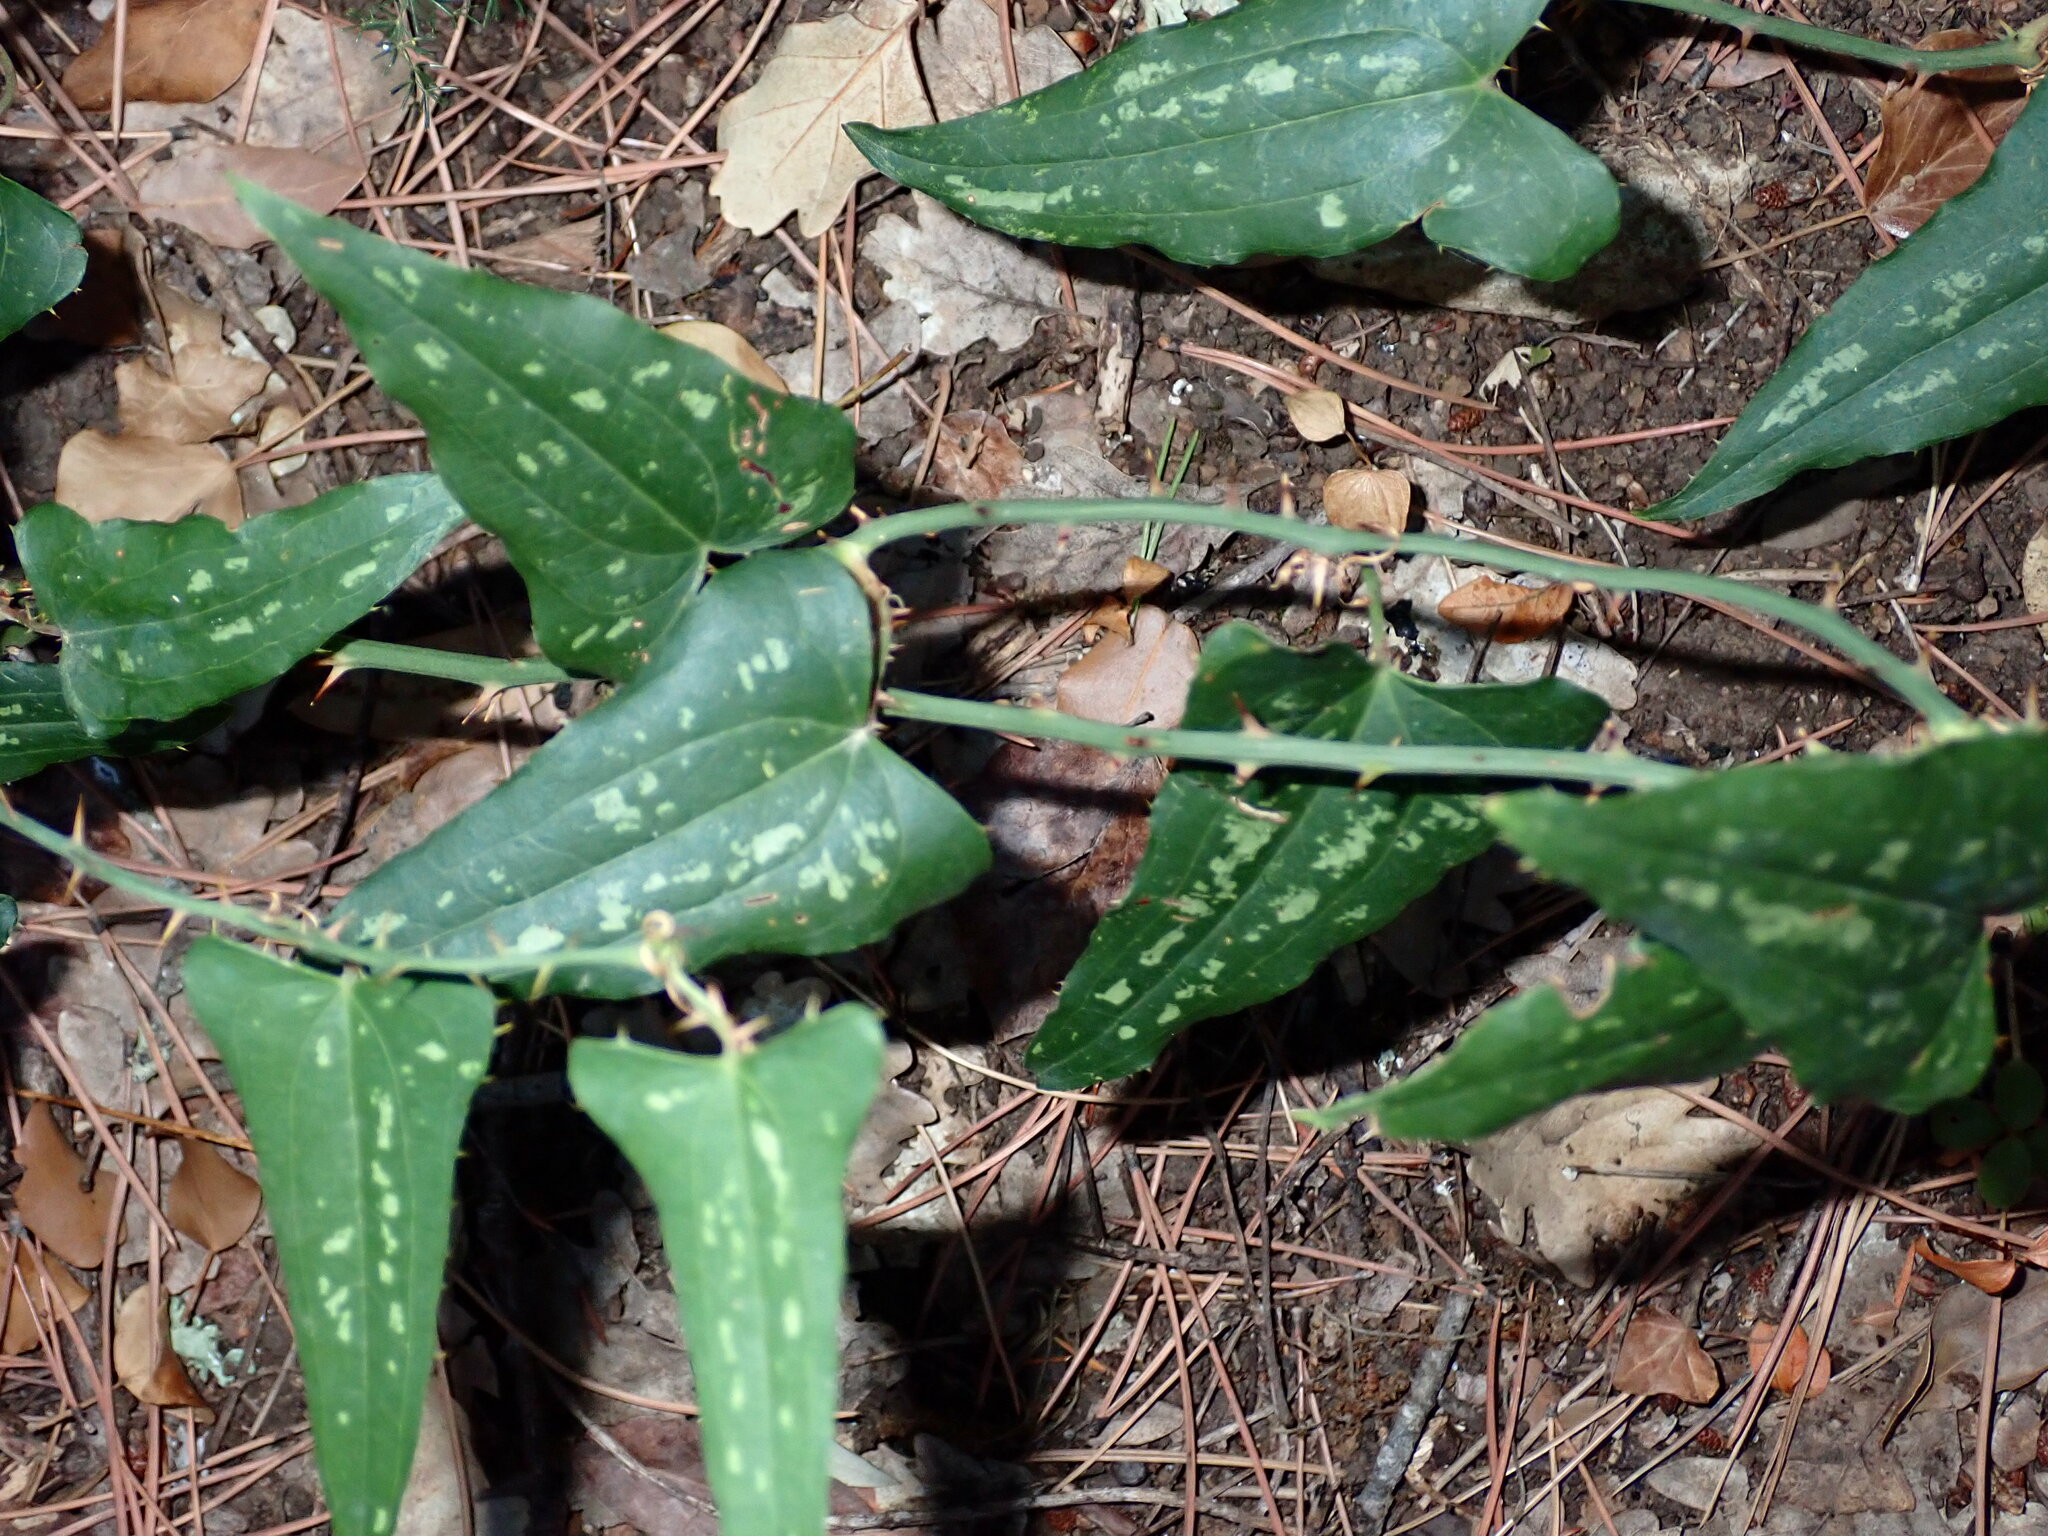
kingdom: Plantae
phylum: Tracheophyta
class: Liliopsida
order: Liliales
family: Smilacaceae
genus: Smilax
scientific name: Smilax aspera
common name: Common smilax
